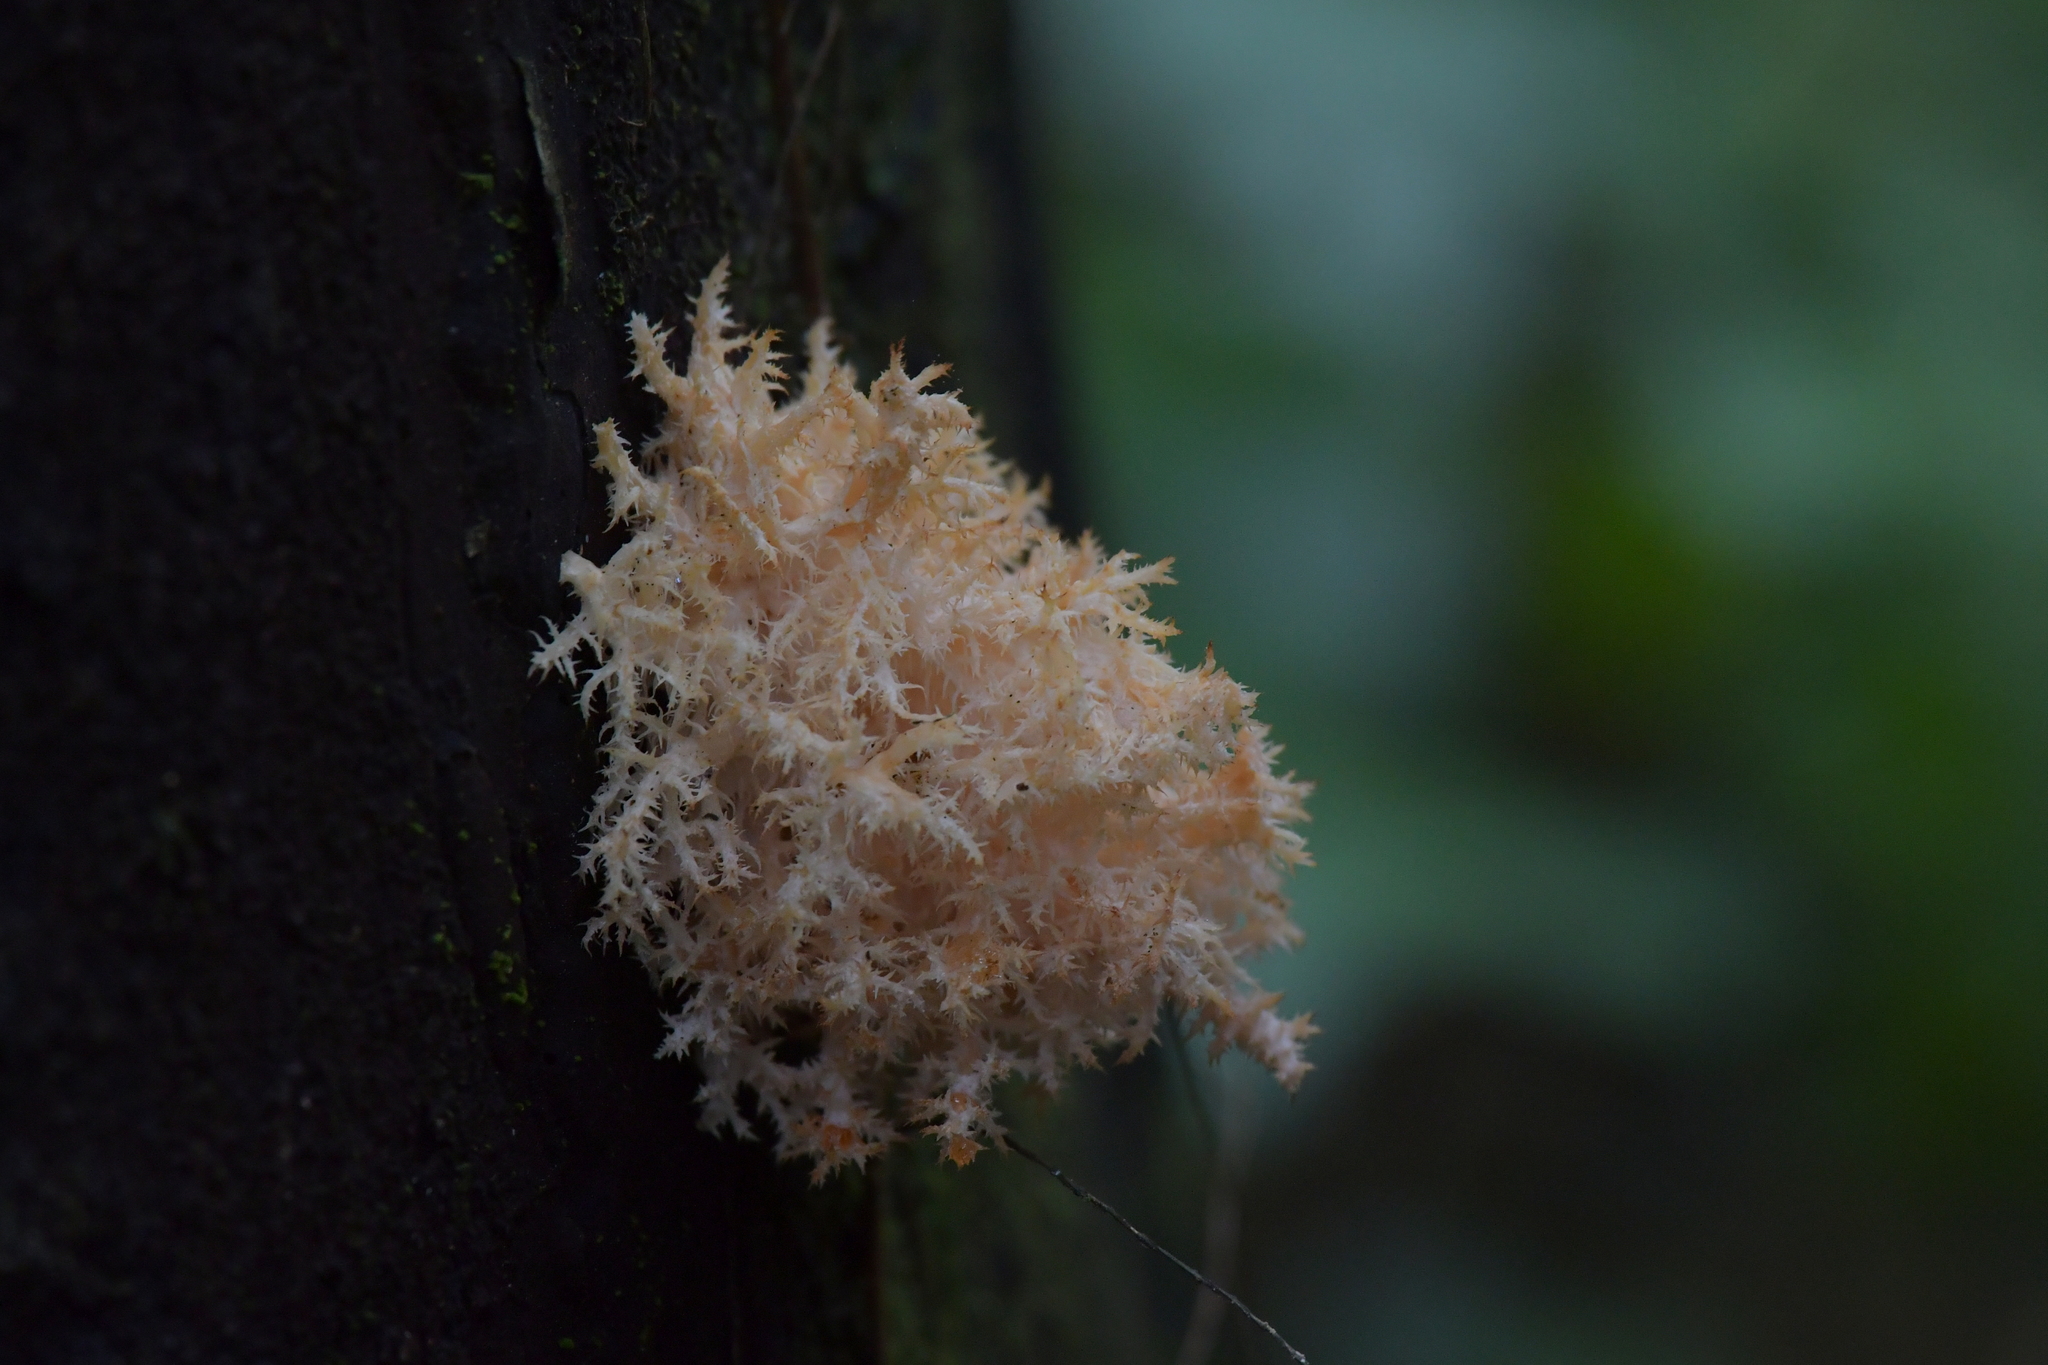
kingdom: Fungi
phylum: Basidiomycota
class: Agaricomycetes
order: Russulales
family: Hericiaceae
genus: Hericium
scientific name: Hericium novae-zealandiae
